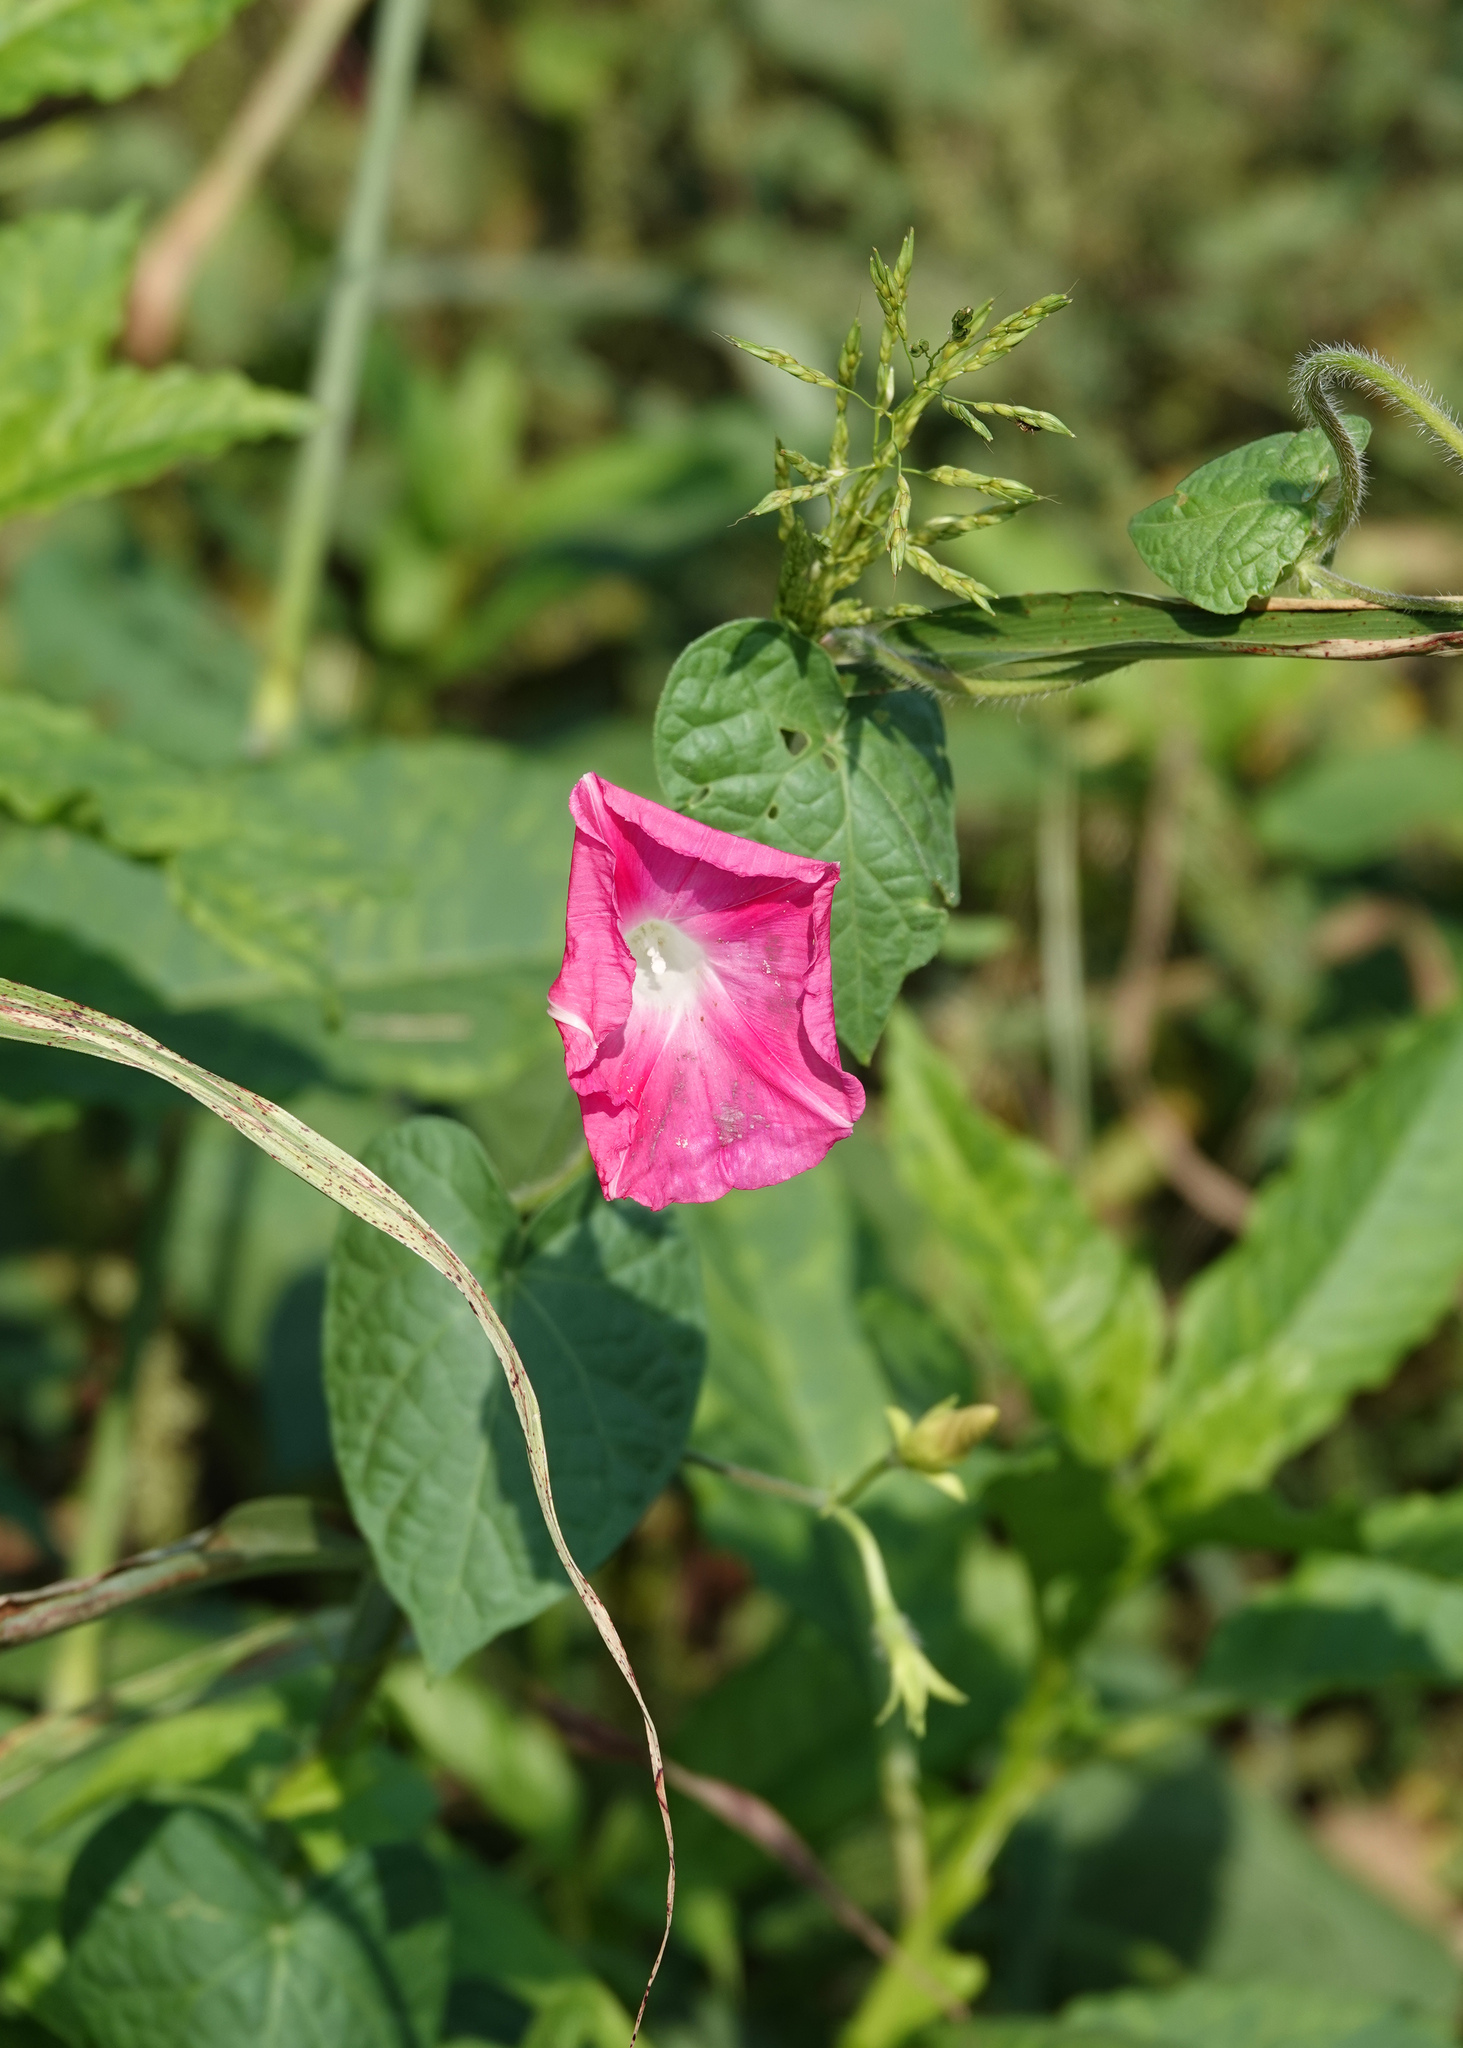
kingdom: Plantae
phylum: Tracheophyta
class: Magnoliopsida
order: Solanales
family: Convolvulaceae
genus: Ipomoea
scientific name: Ipomoea purpurea
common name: Common morning-glory
